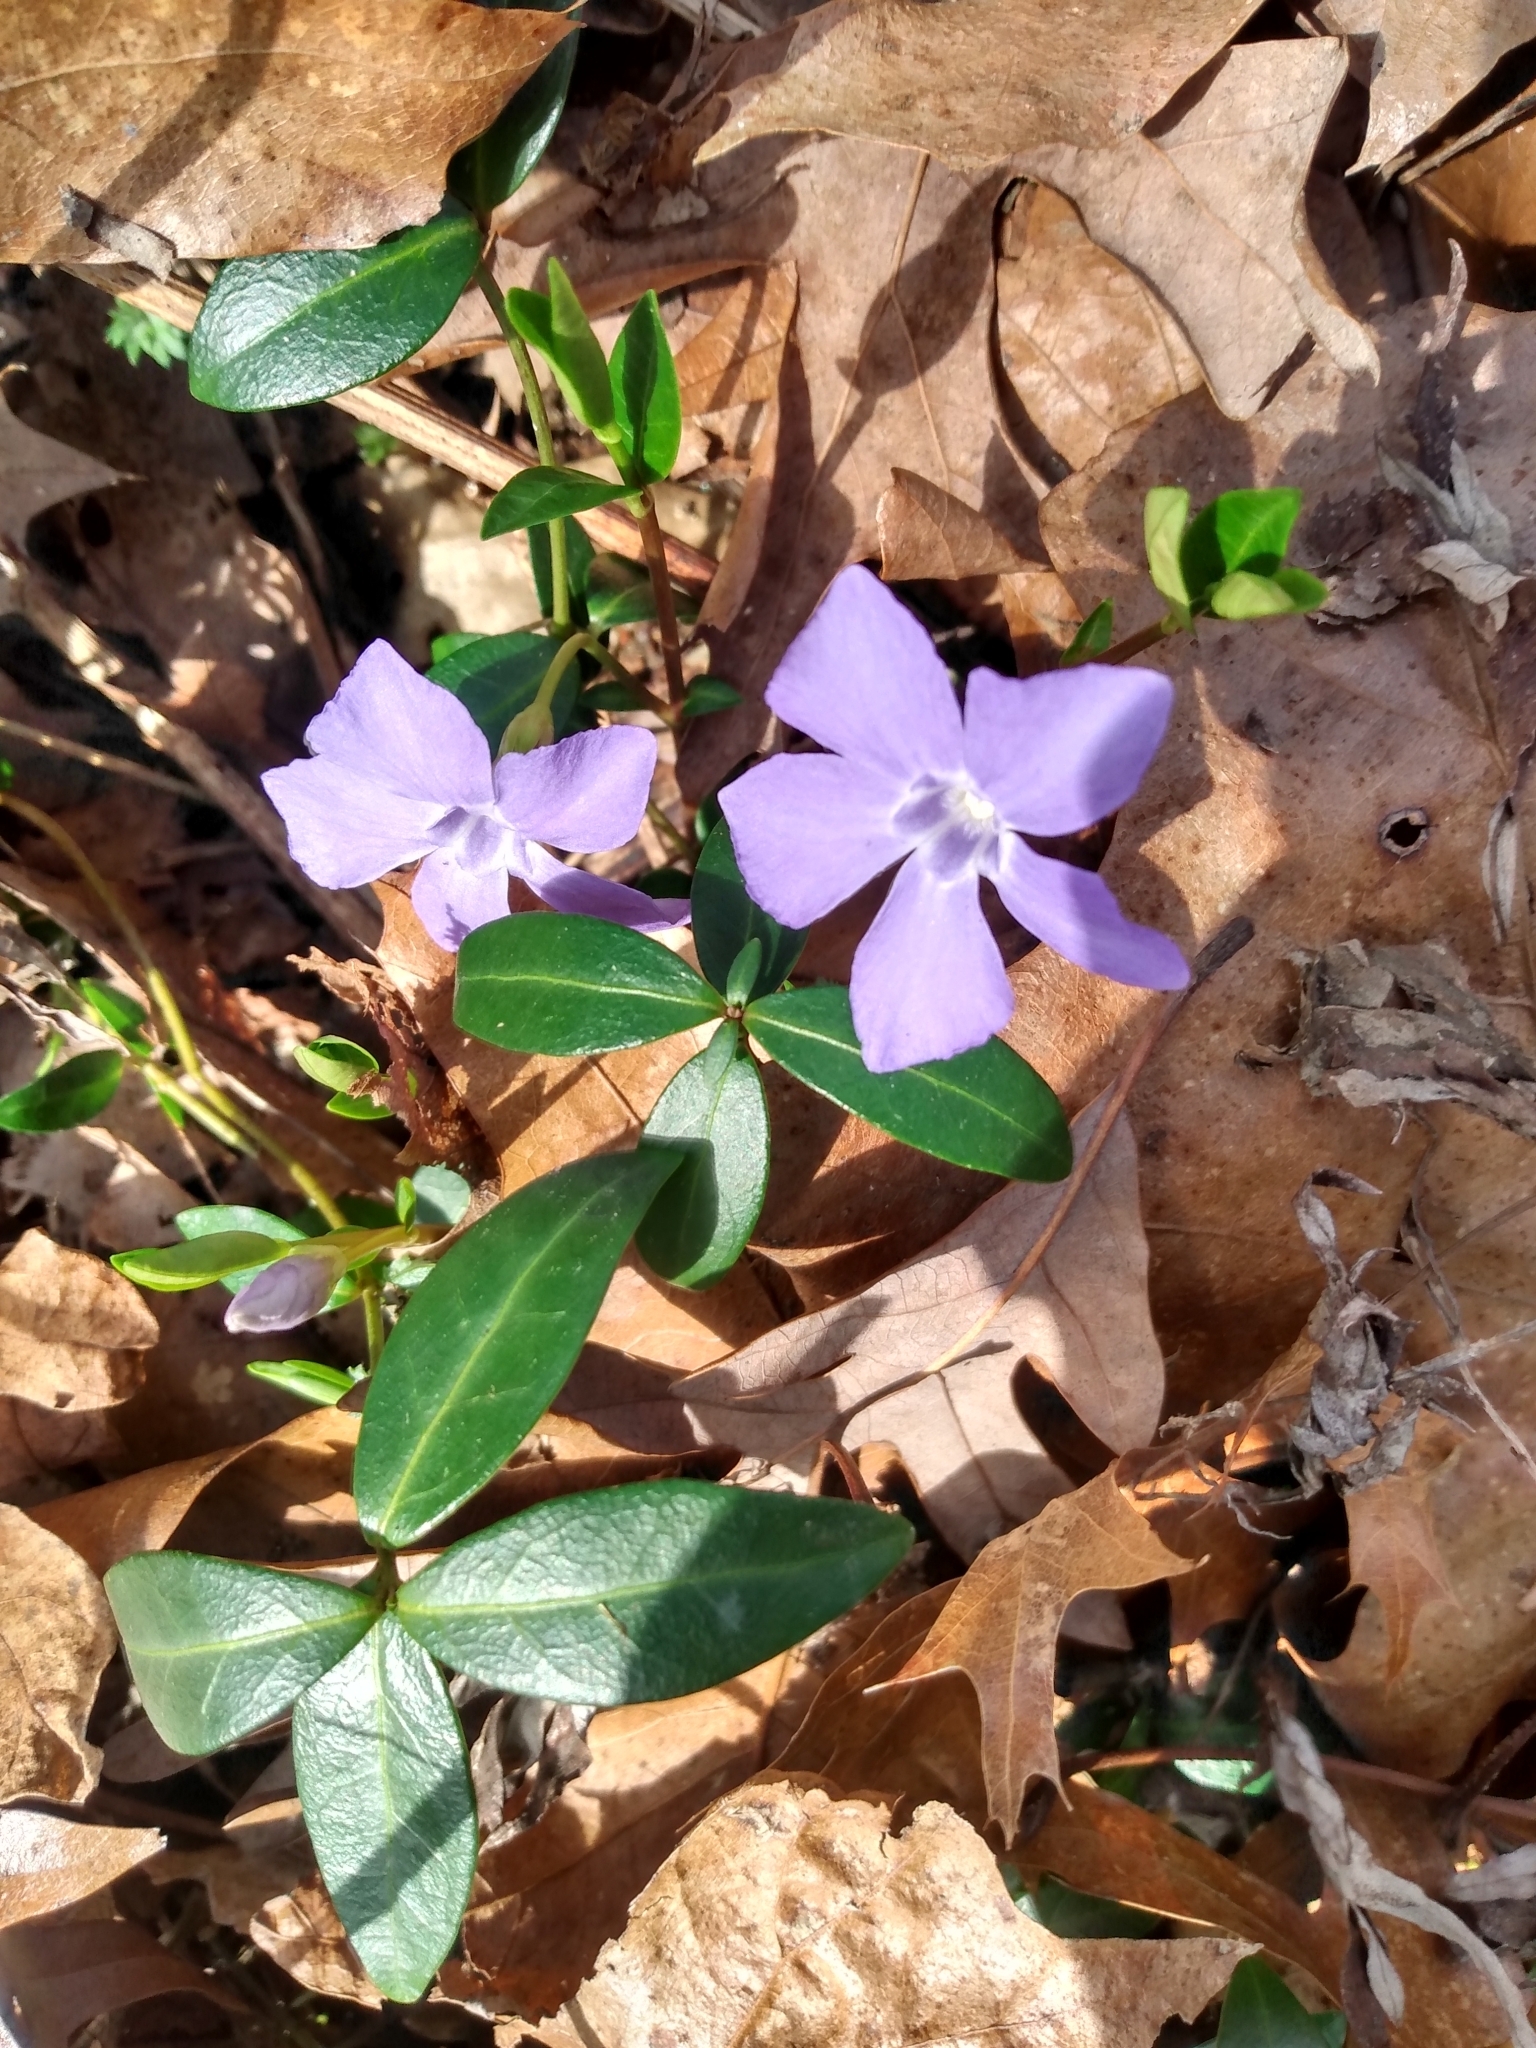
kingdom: Plantae
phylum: Tracheophyta
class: Magnoliopsida
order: Gentianales
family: Apocynaceae
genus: Vinca
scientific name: Vinca minor
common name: Lesser periwinkle
